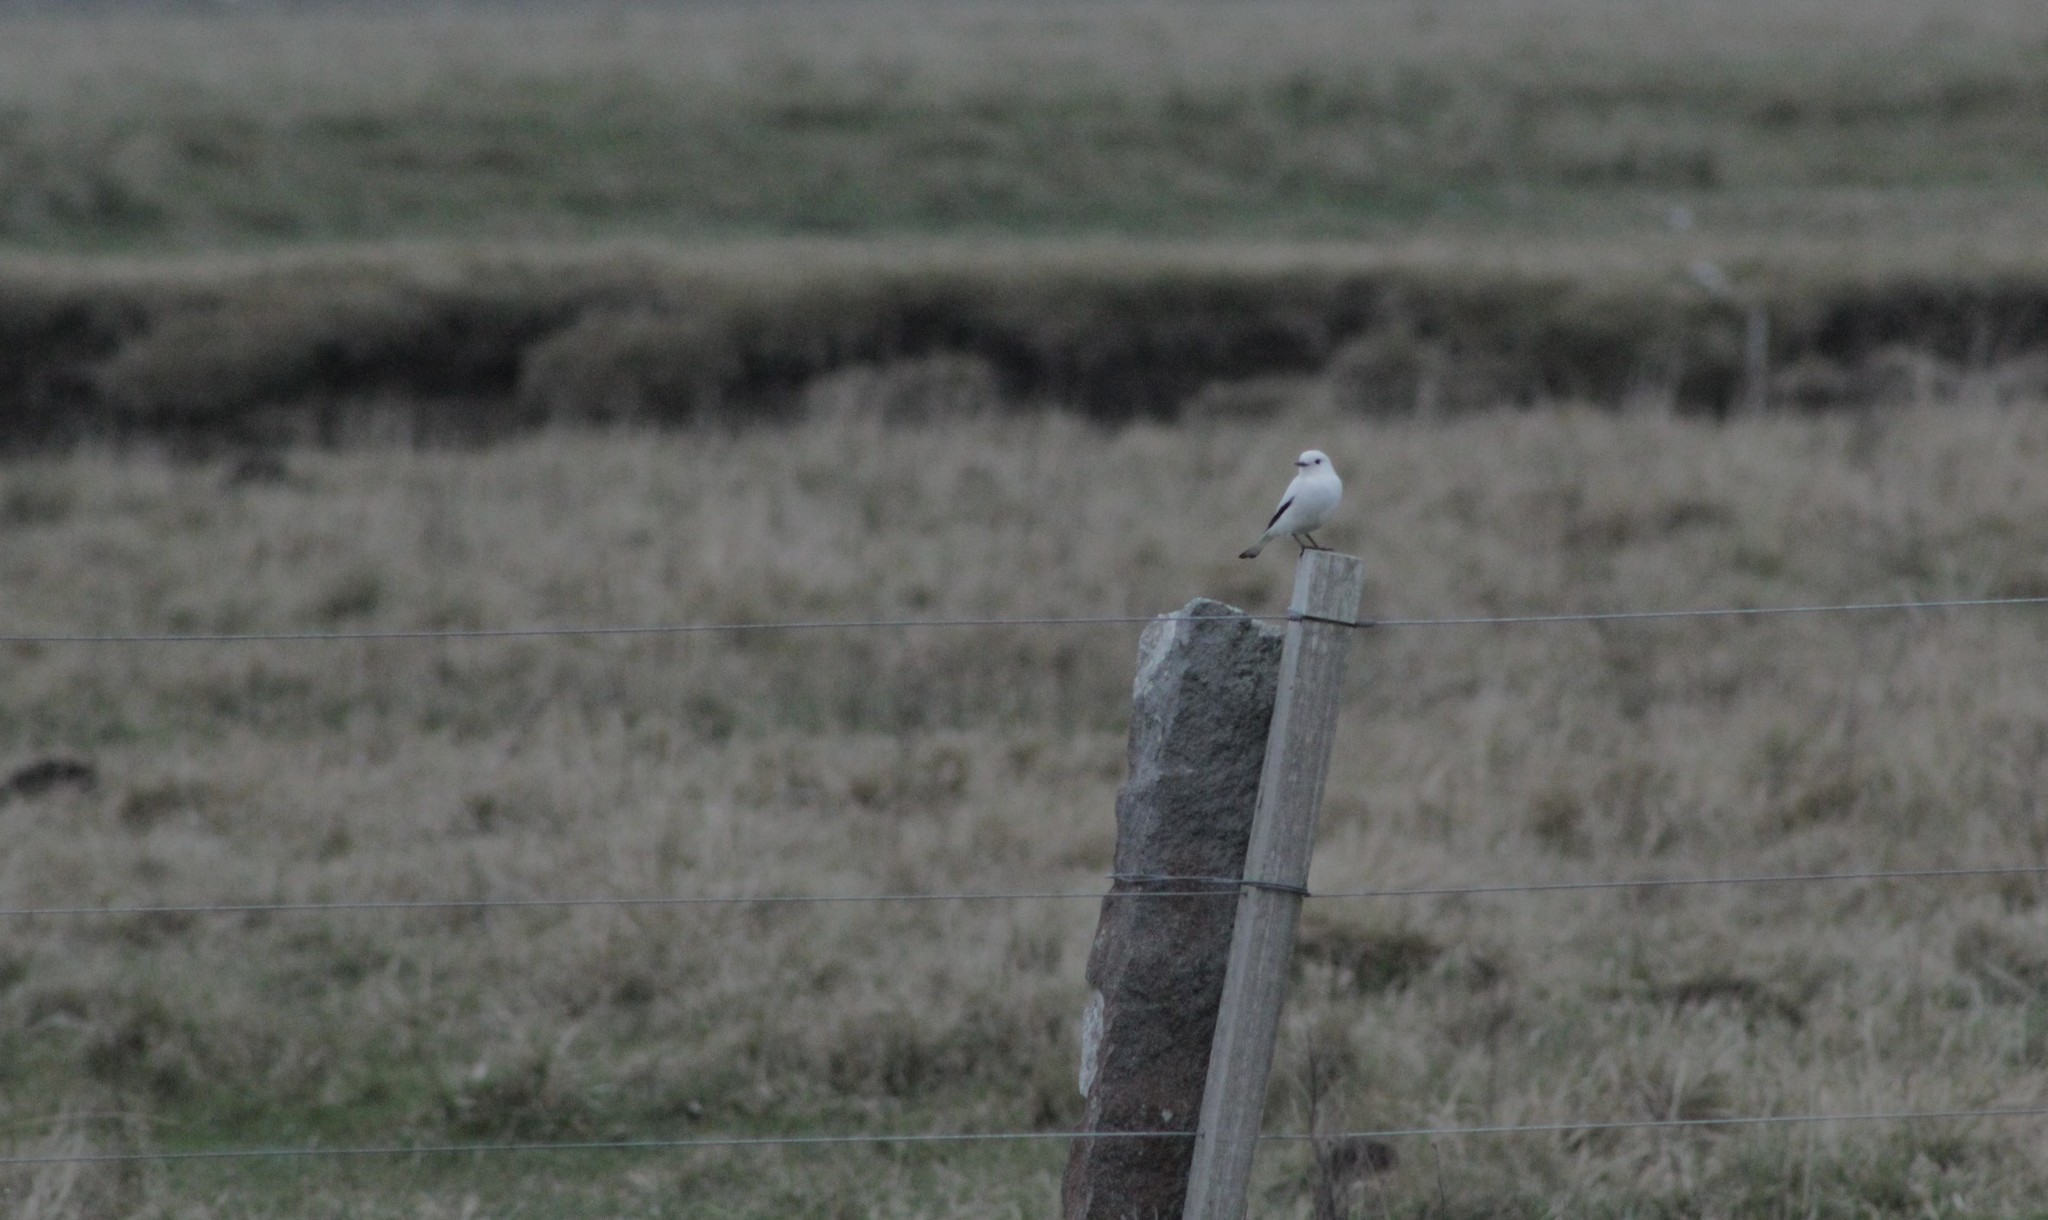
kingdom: Animalia
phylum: Chordata
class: Aves
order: Passeriformes
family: Tyrannidae
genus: Xolmis
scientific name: Xolmis irupero
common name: White monjita
